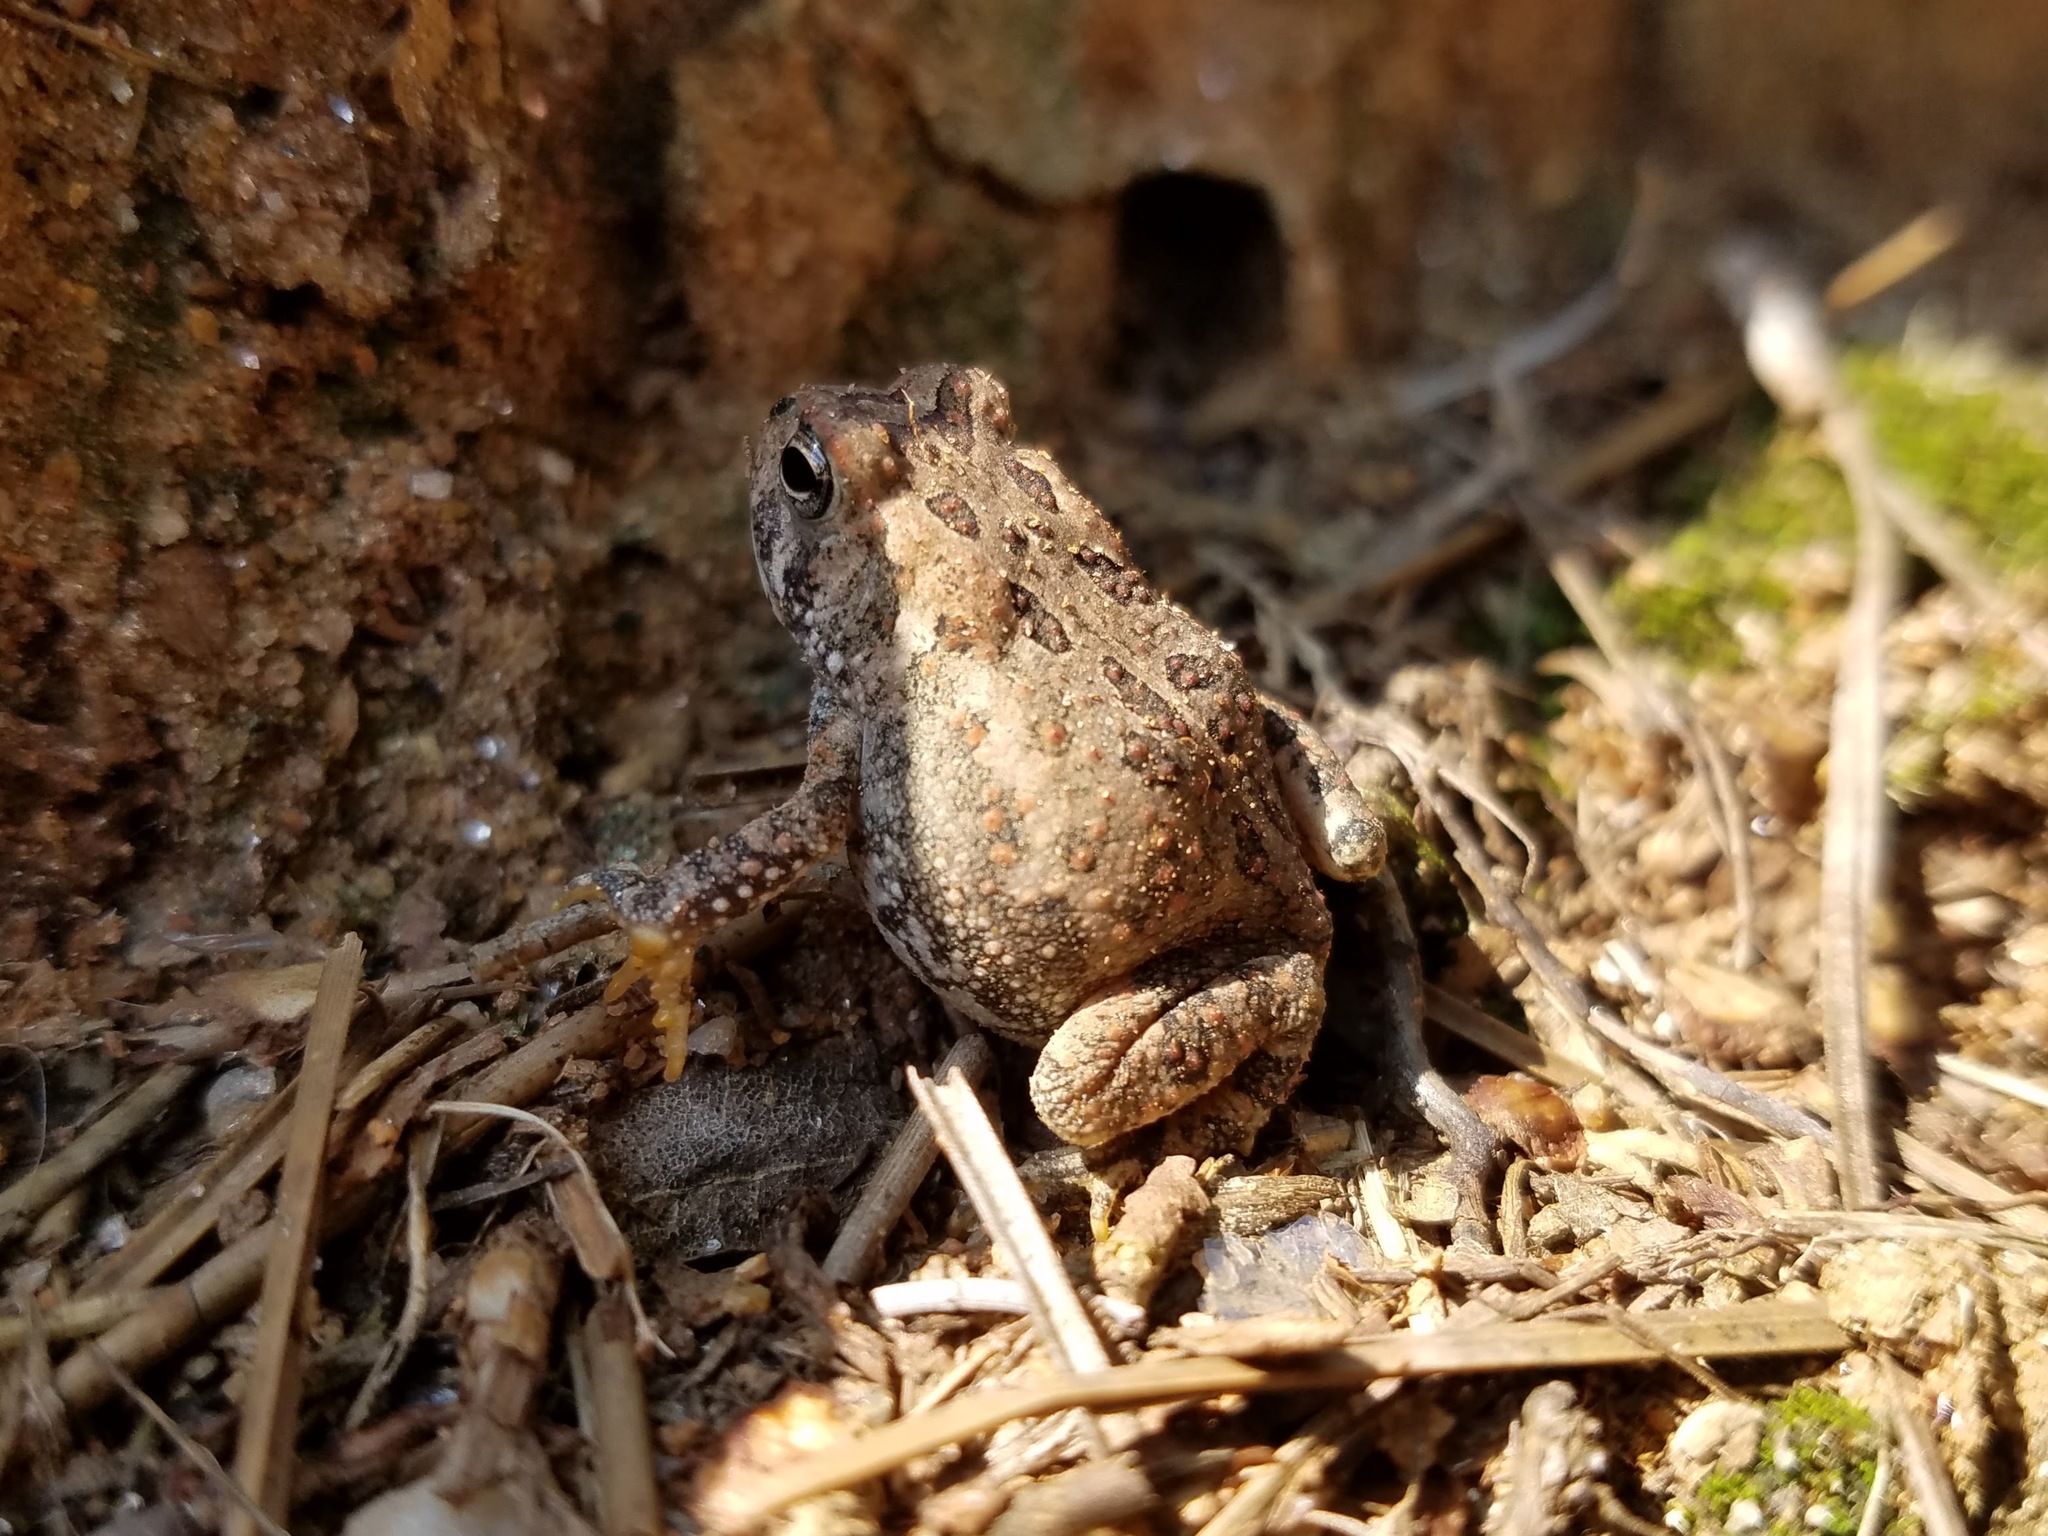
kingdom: Animalia
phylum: Chordata
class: Amphibia
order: Anura
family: Bufonidae
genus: Anaxyrus
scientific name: Anaxyrus fowleri
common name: Fowler's toad
